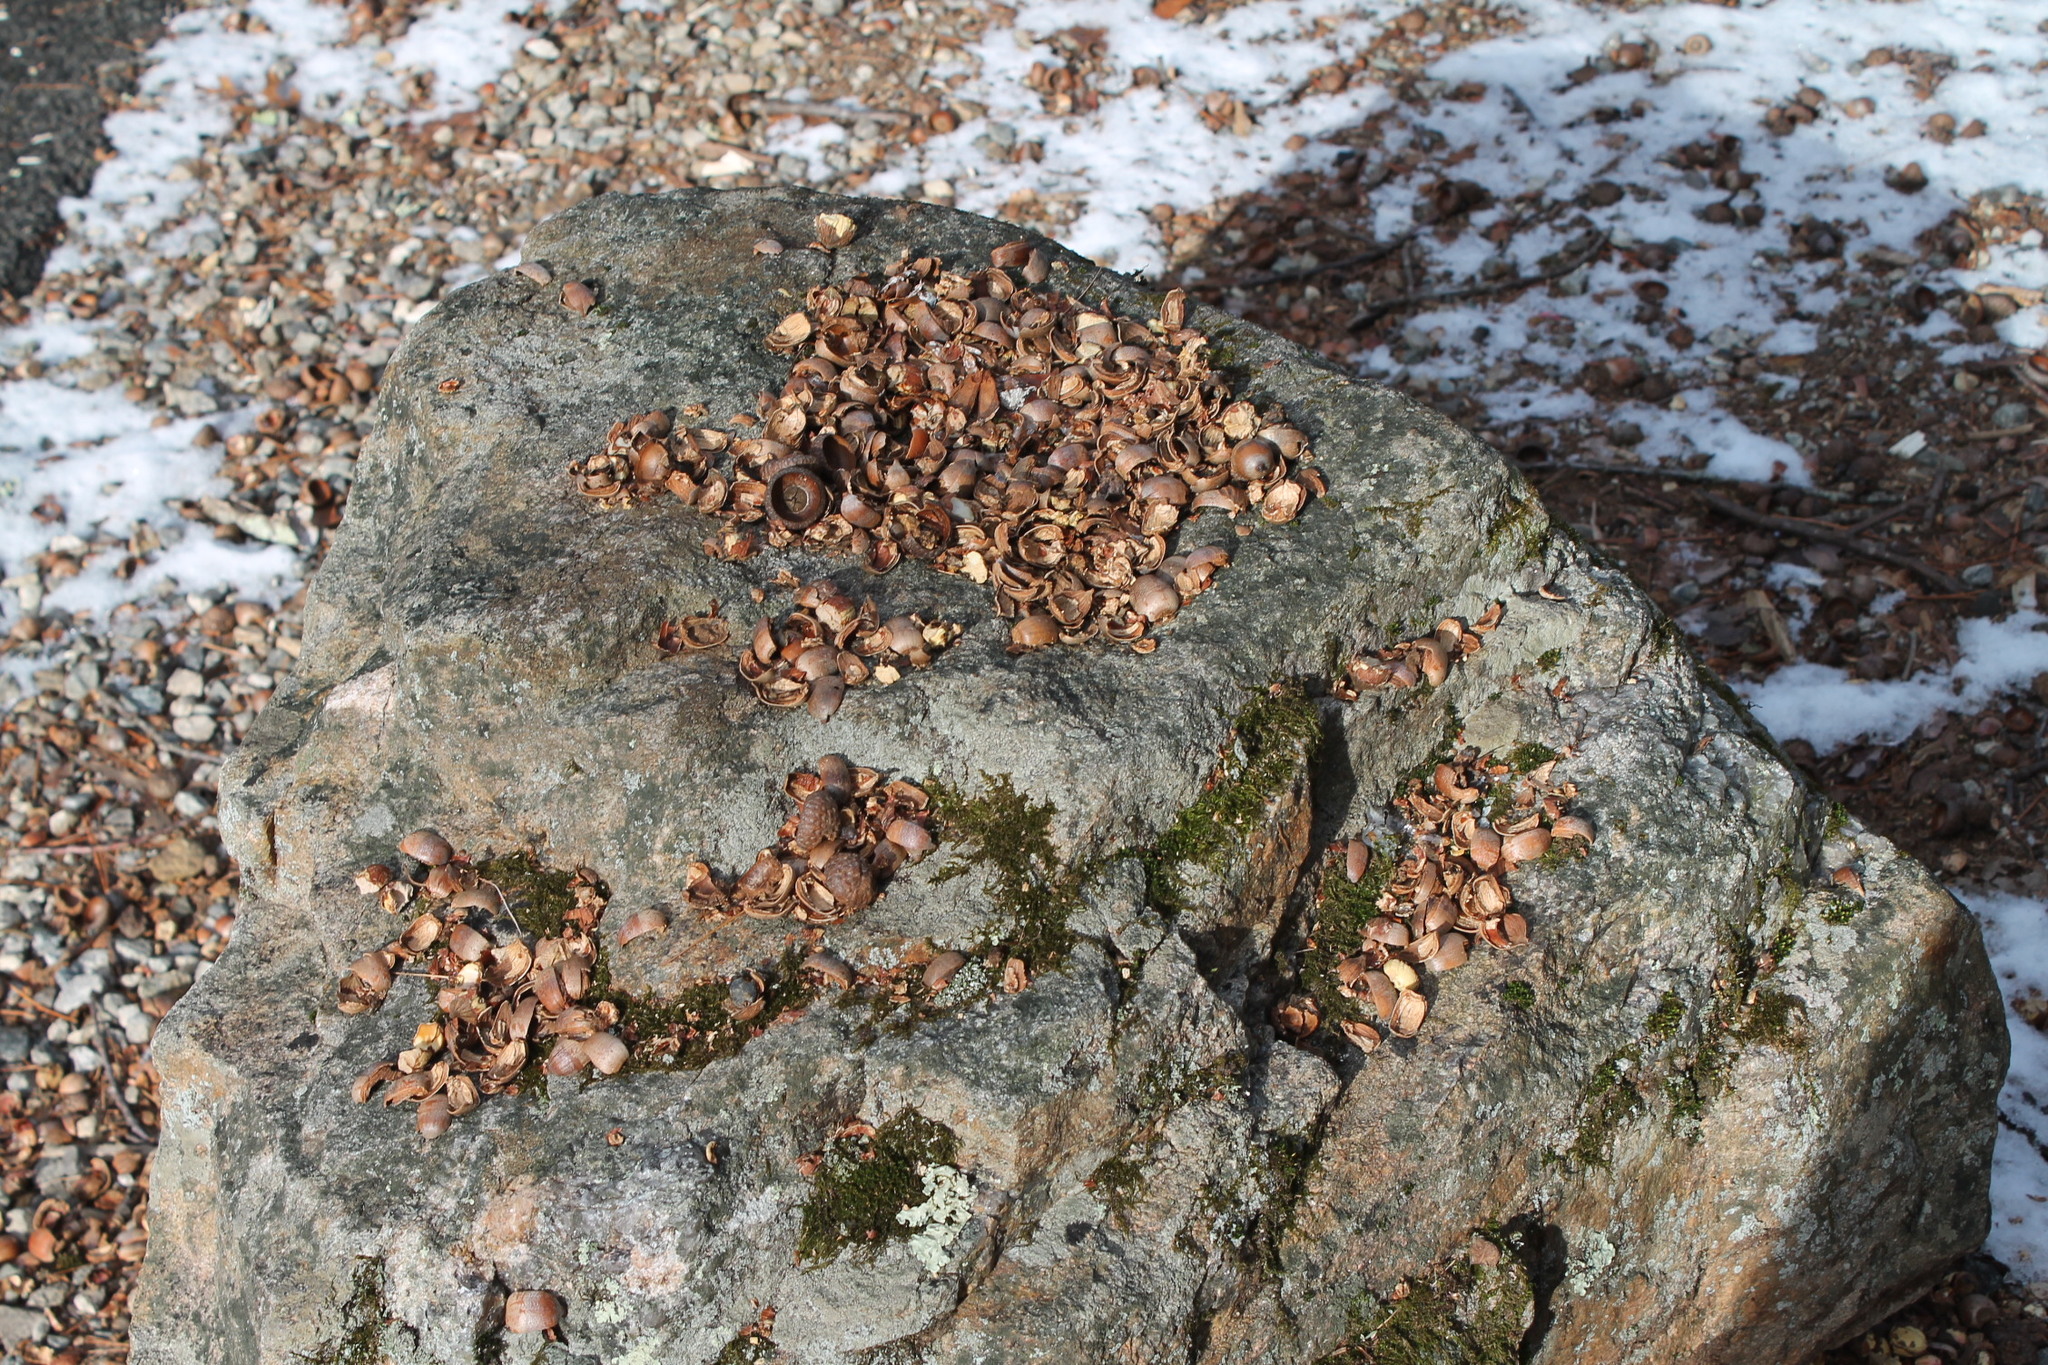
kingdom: Animalia
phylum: Chordata
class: Mammalia
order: Rodentia
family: Sciuridae
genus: Sciurus
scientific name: Sciurus carolinensis
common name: Eastern gray squirrel
